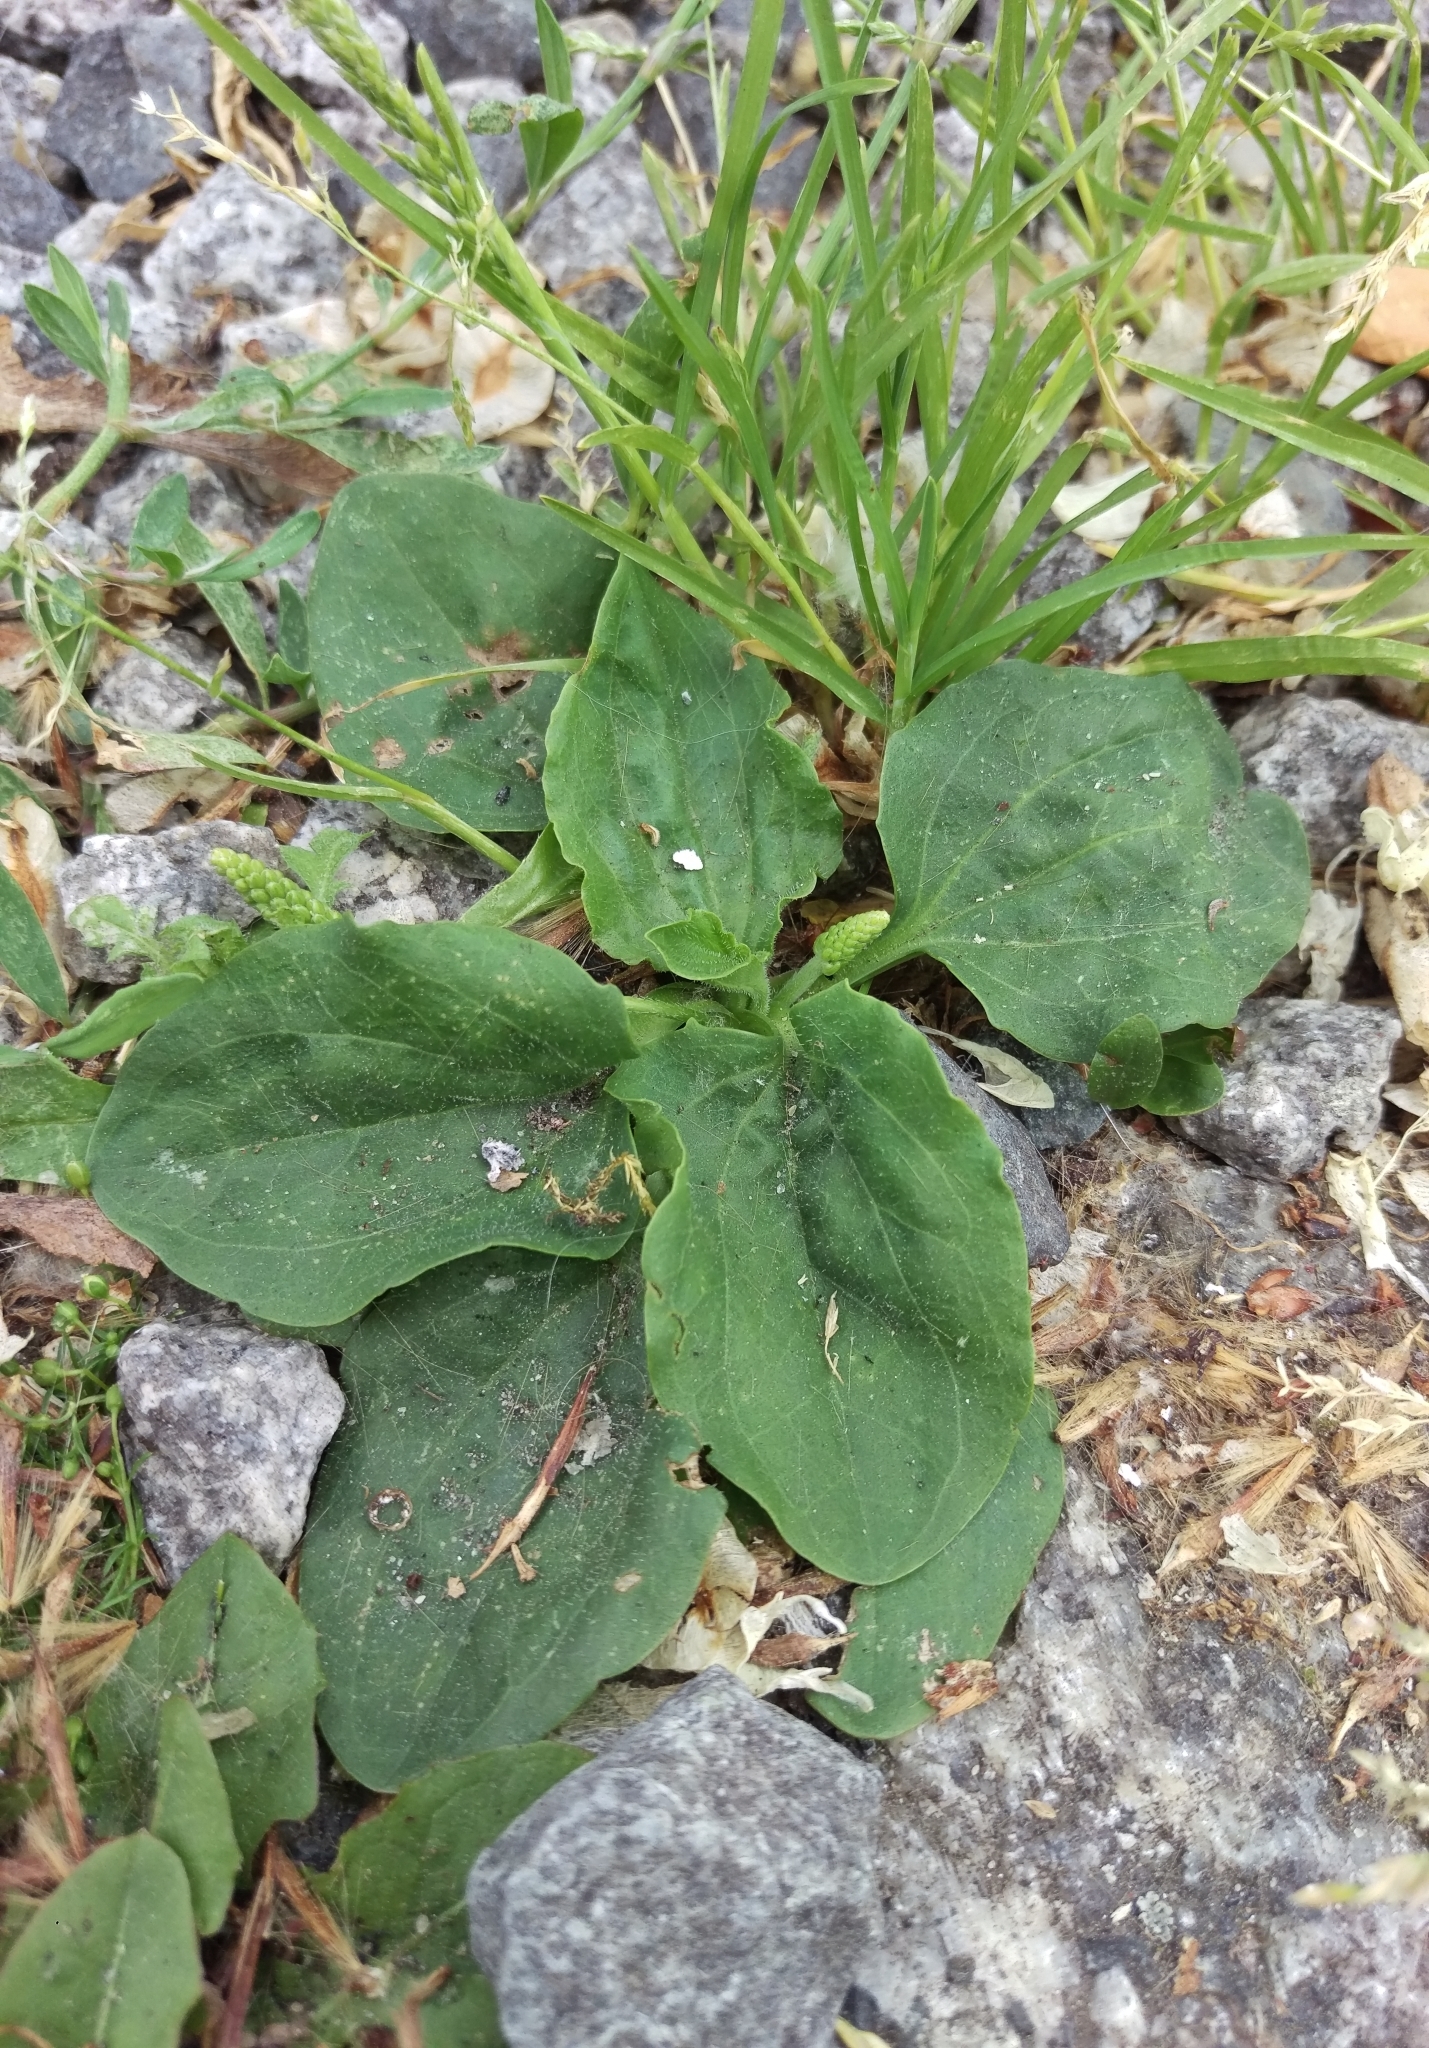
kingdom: Plantae
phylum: Tracheophyta
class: Magnoliopsida
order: Lamiales
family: Plantaginaceae
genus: Plantago
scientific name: Plantago major
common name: Common plantain
